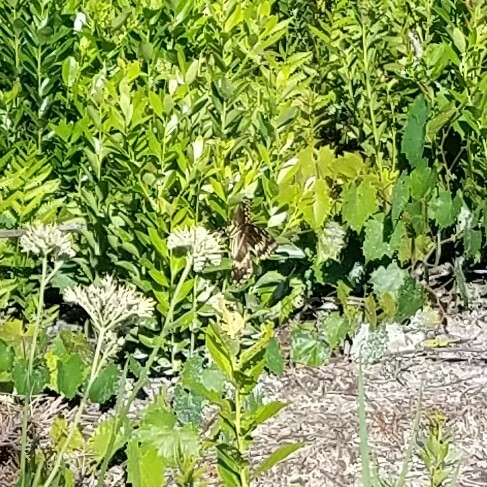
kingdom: Animalia
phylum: Arthropoda
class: Insecta
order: Lepidoptera
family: Papilionidae
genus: Papilio
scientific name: Papilio cresphontes
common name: Giant swallowtail
